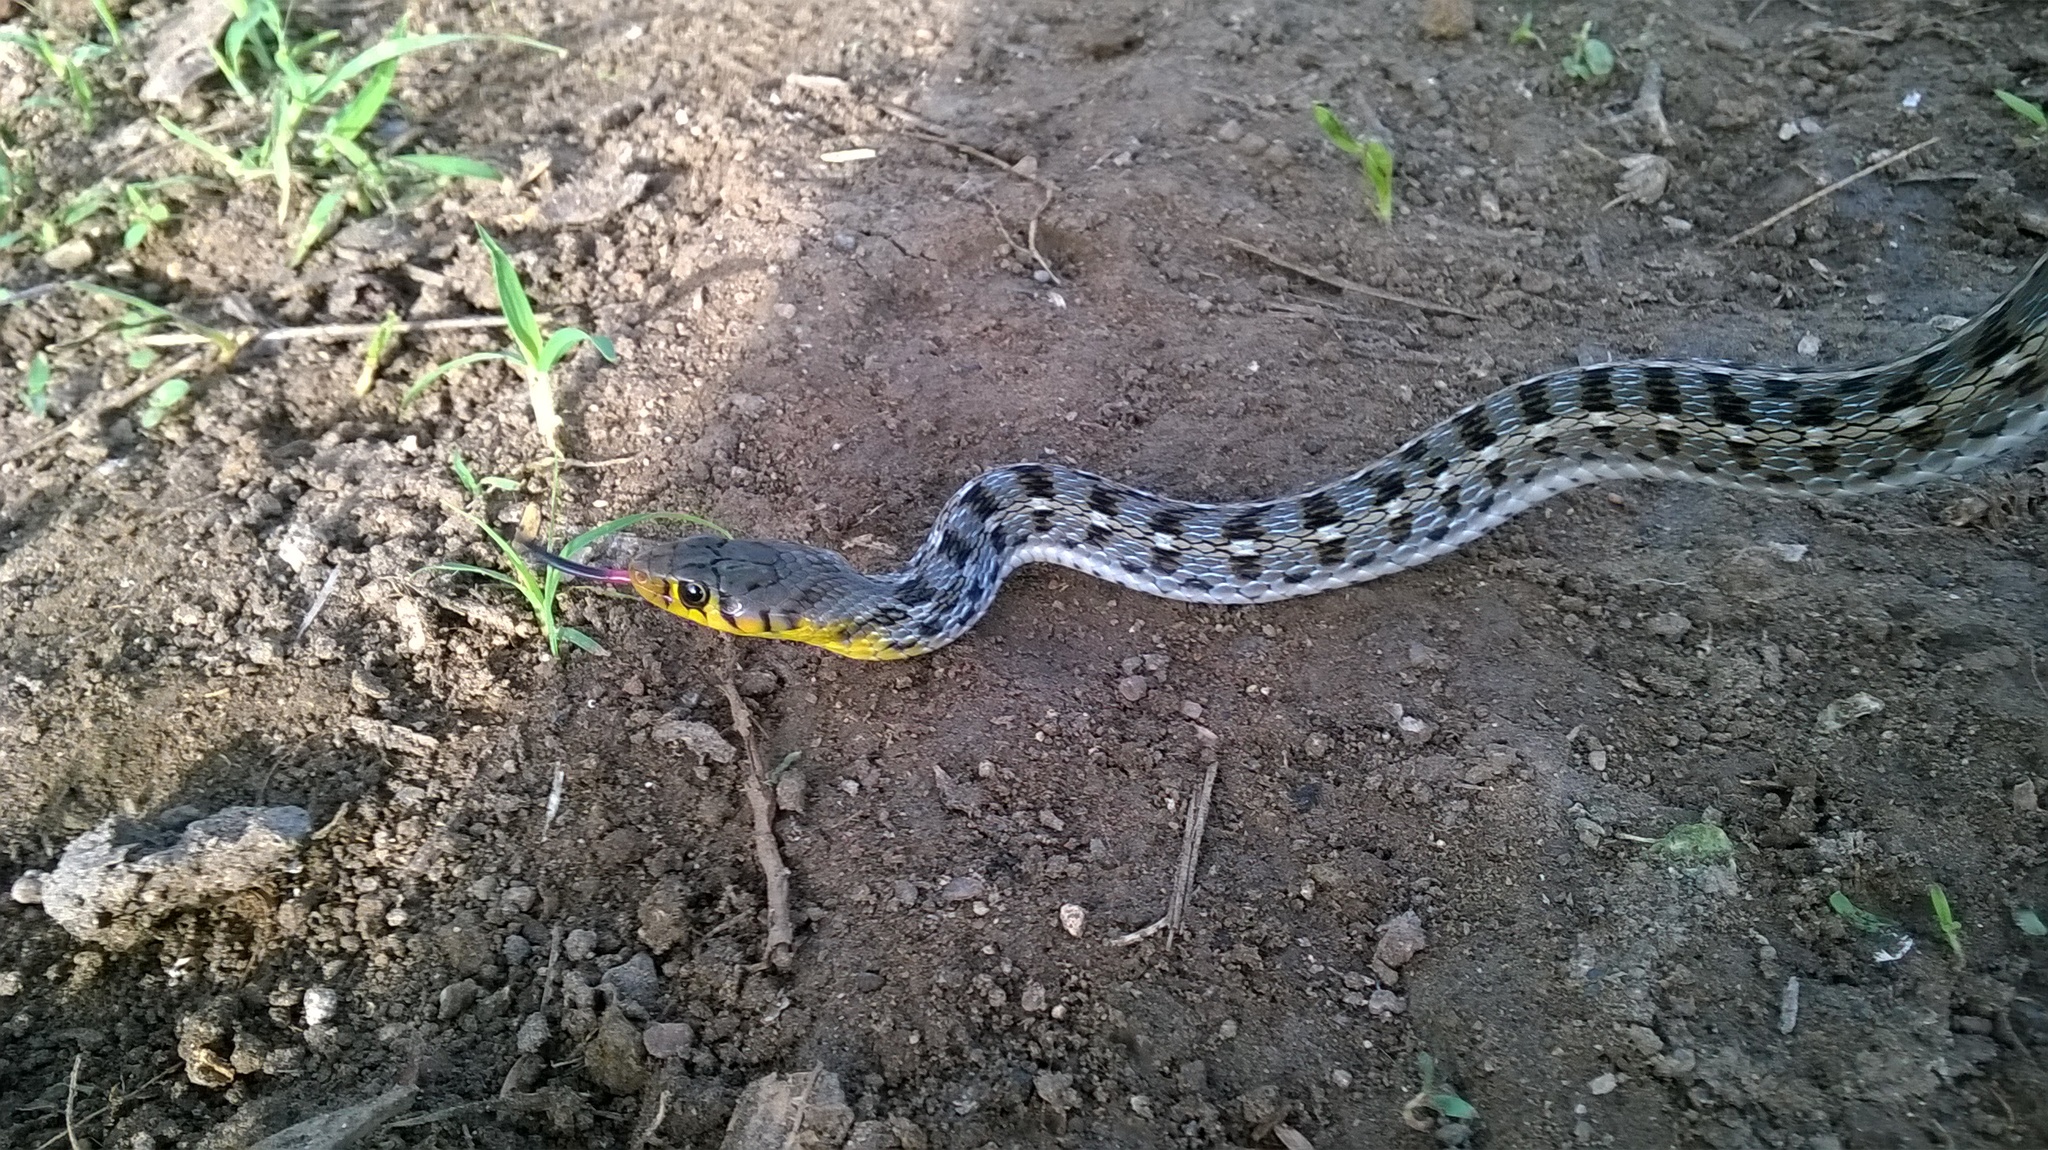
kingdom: Animalia
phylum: Chordata
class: Squamata
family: Colubridae
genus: Amphiesma
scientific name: Amphiesma stolatum
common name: Buff striped keelback
